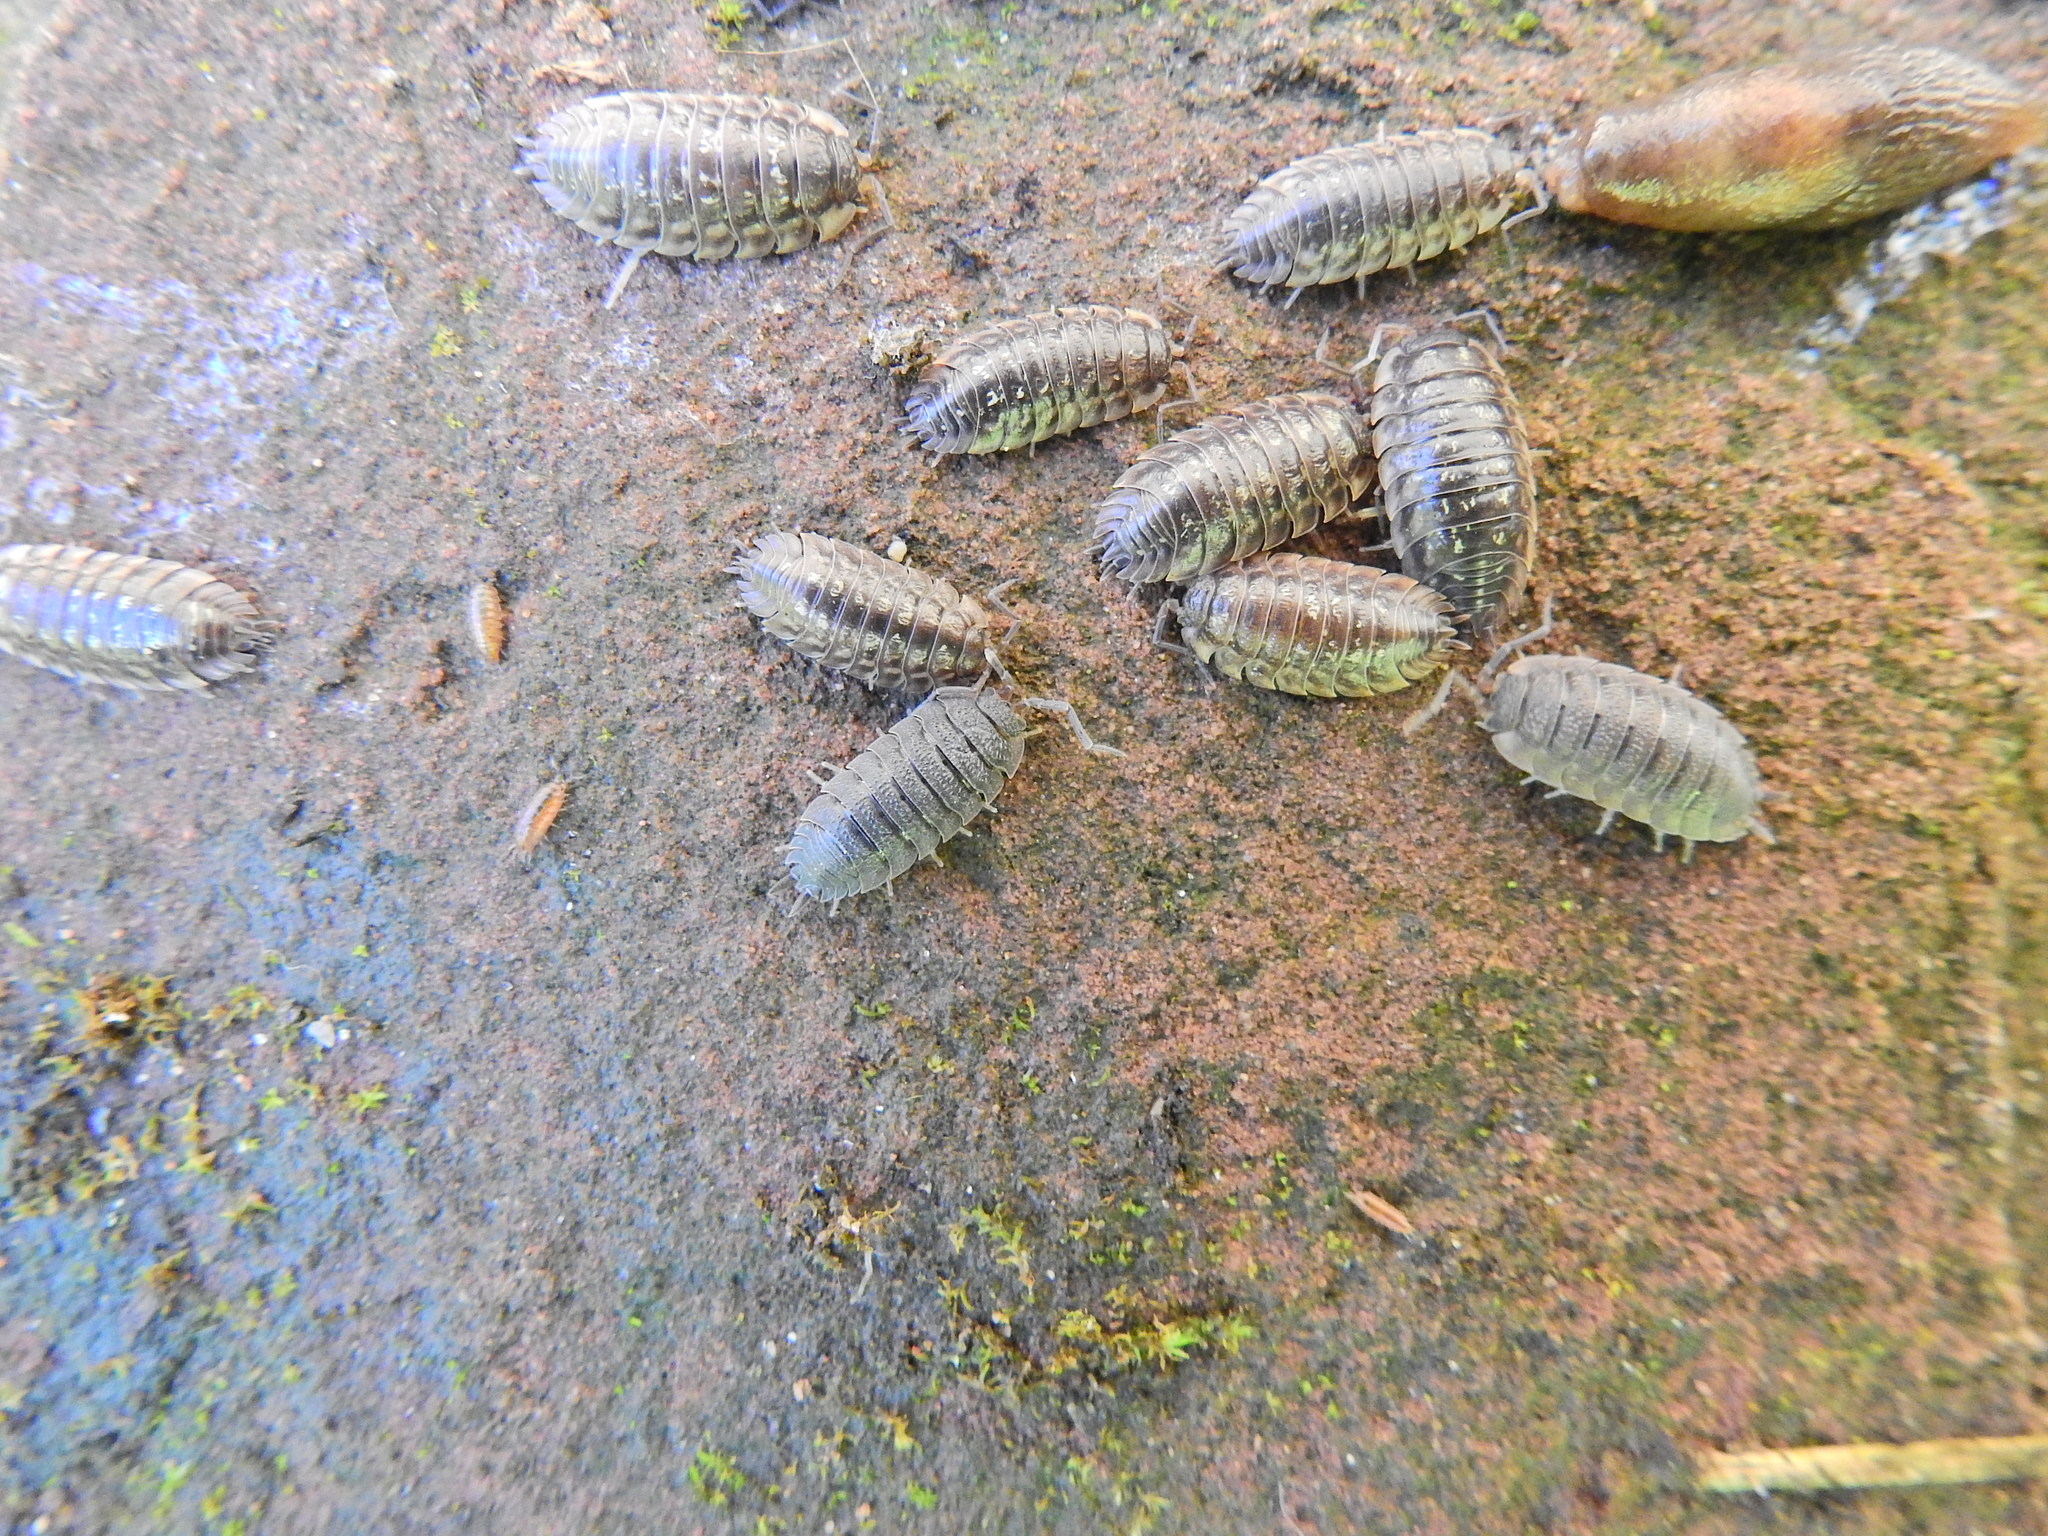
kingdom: Animalia
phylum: Arthropoda
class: Malacostraca
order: Isopoda
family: Oniscidae
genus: Oniscus
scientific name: Oniscus asellus
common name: Common shiny woodlouse
